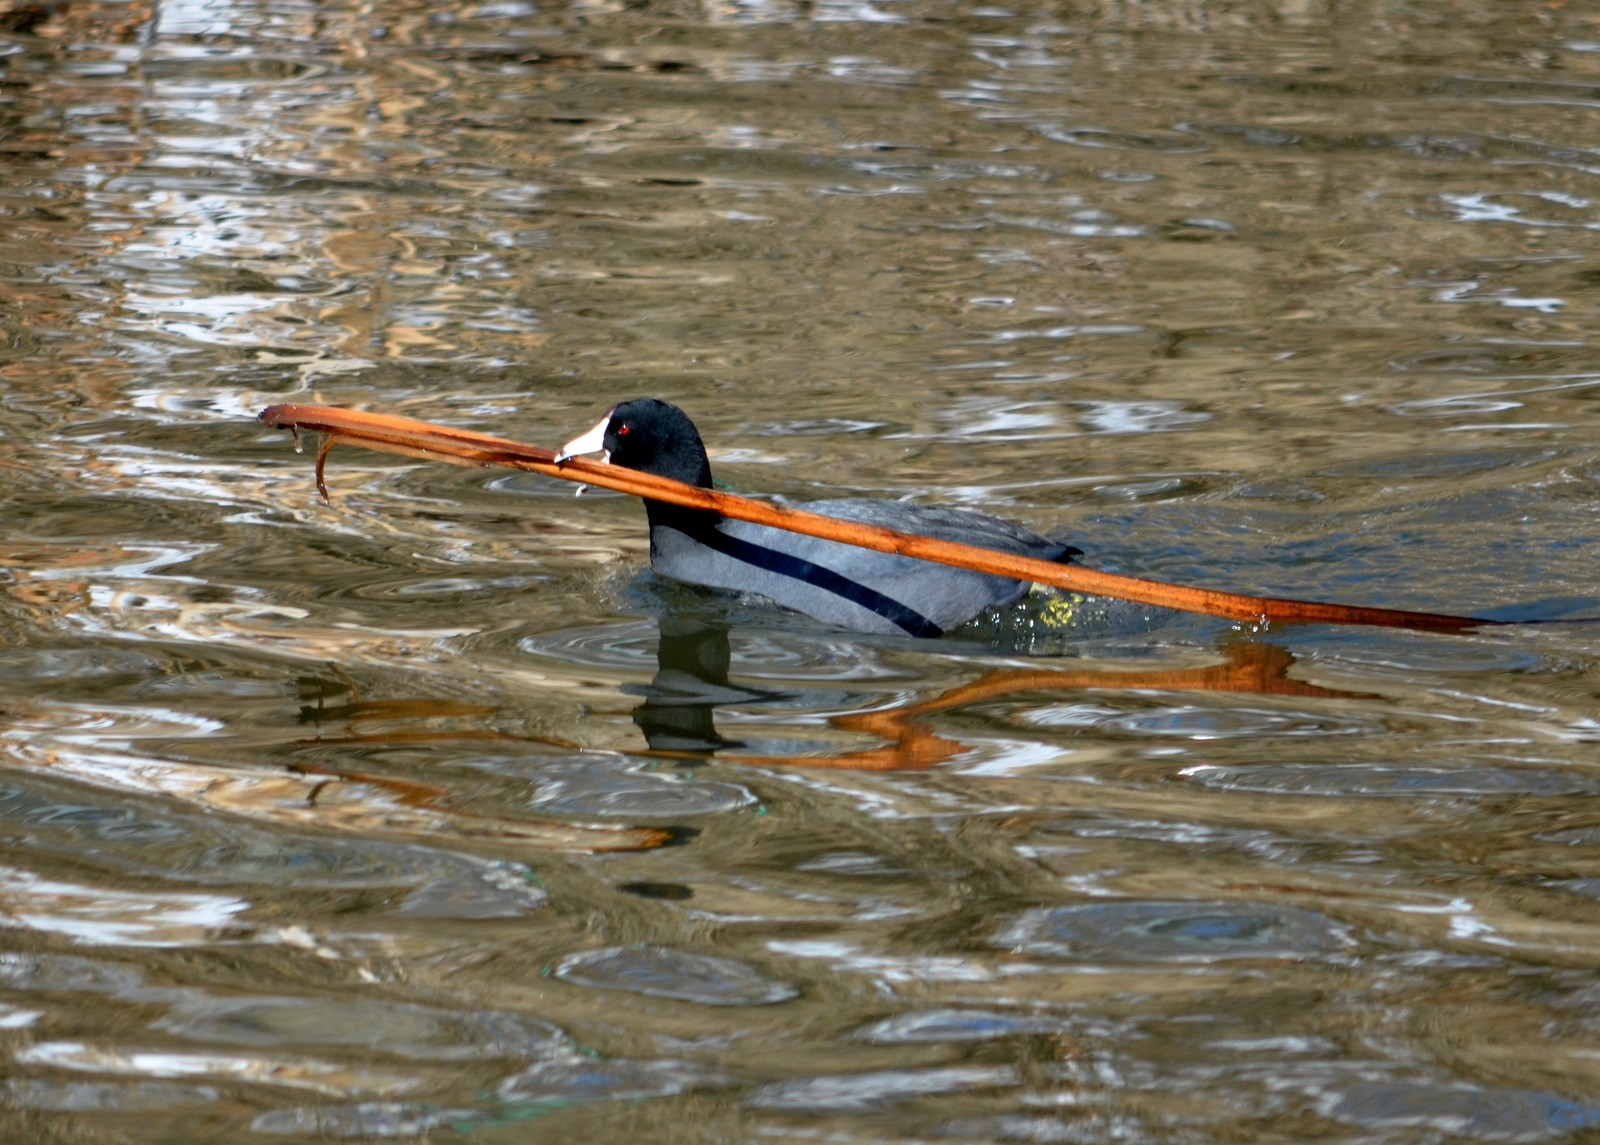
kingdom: Animalia
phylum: Chordata
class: Aves
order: Gruiformes
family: Rallidae
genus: Fulica
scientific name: Fulica americana
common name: American coot
